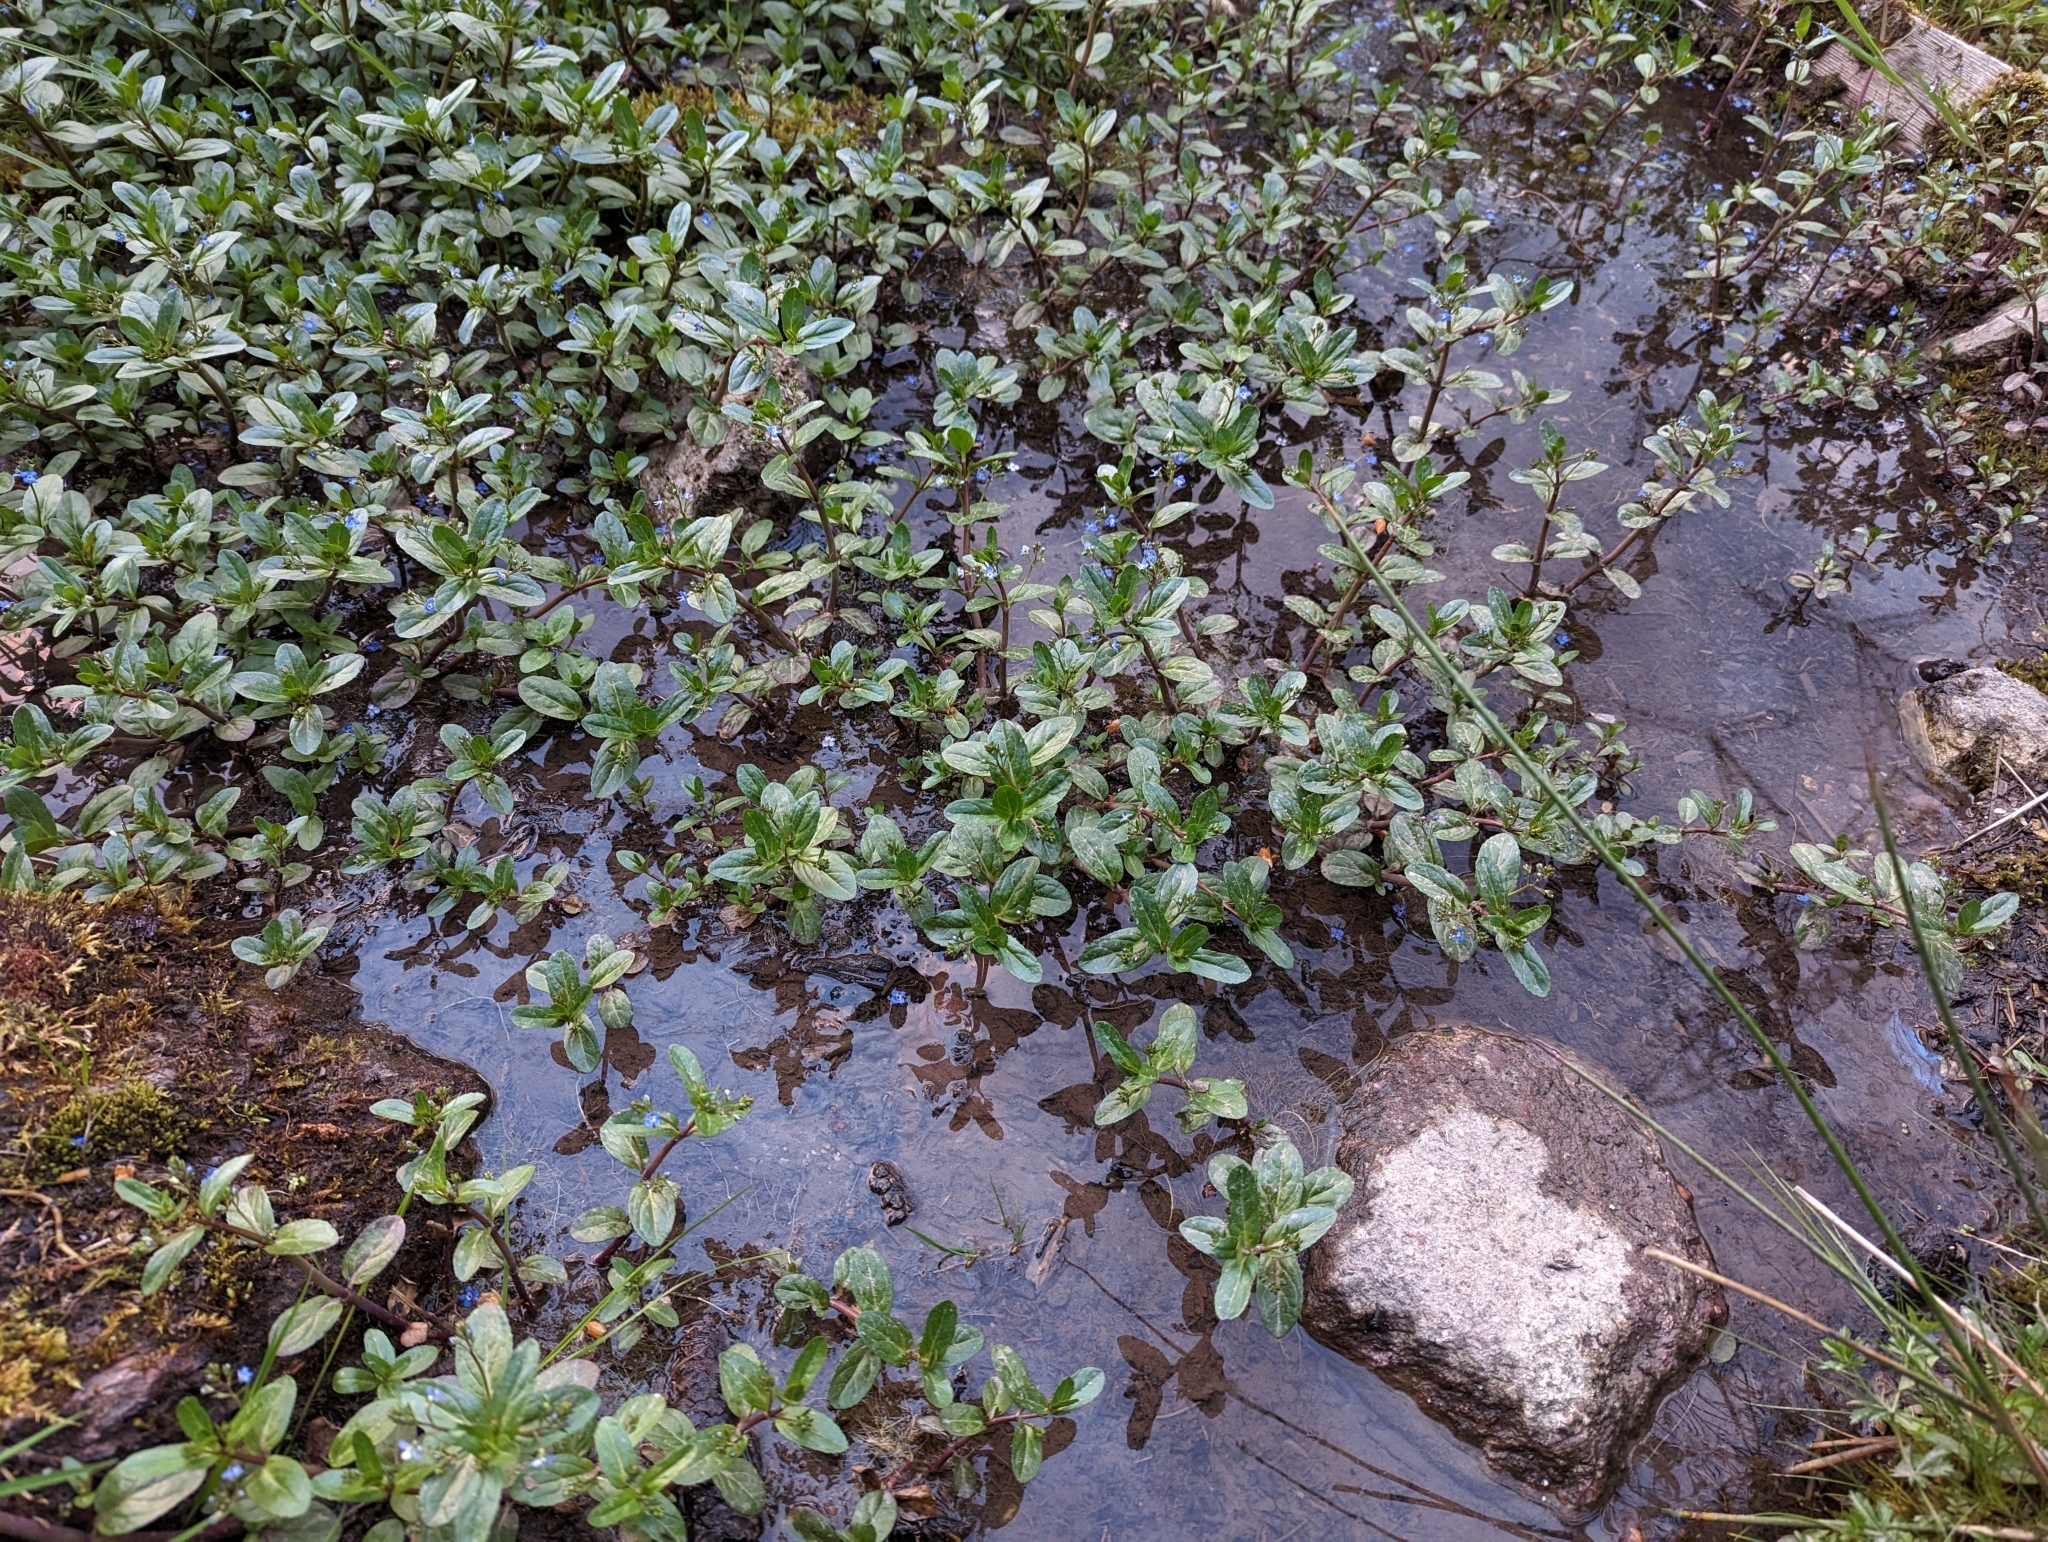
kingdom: Plantae
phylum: Tracheophyta
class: Magnoliopsida
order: Lamiales
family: Plantaginaceae
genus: Veronica
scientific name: Veronica beccabunga
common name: Brooklime
